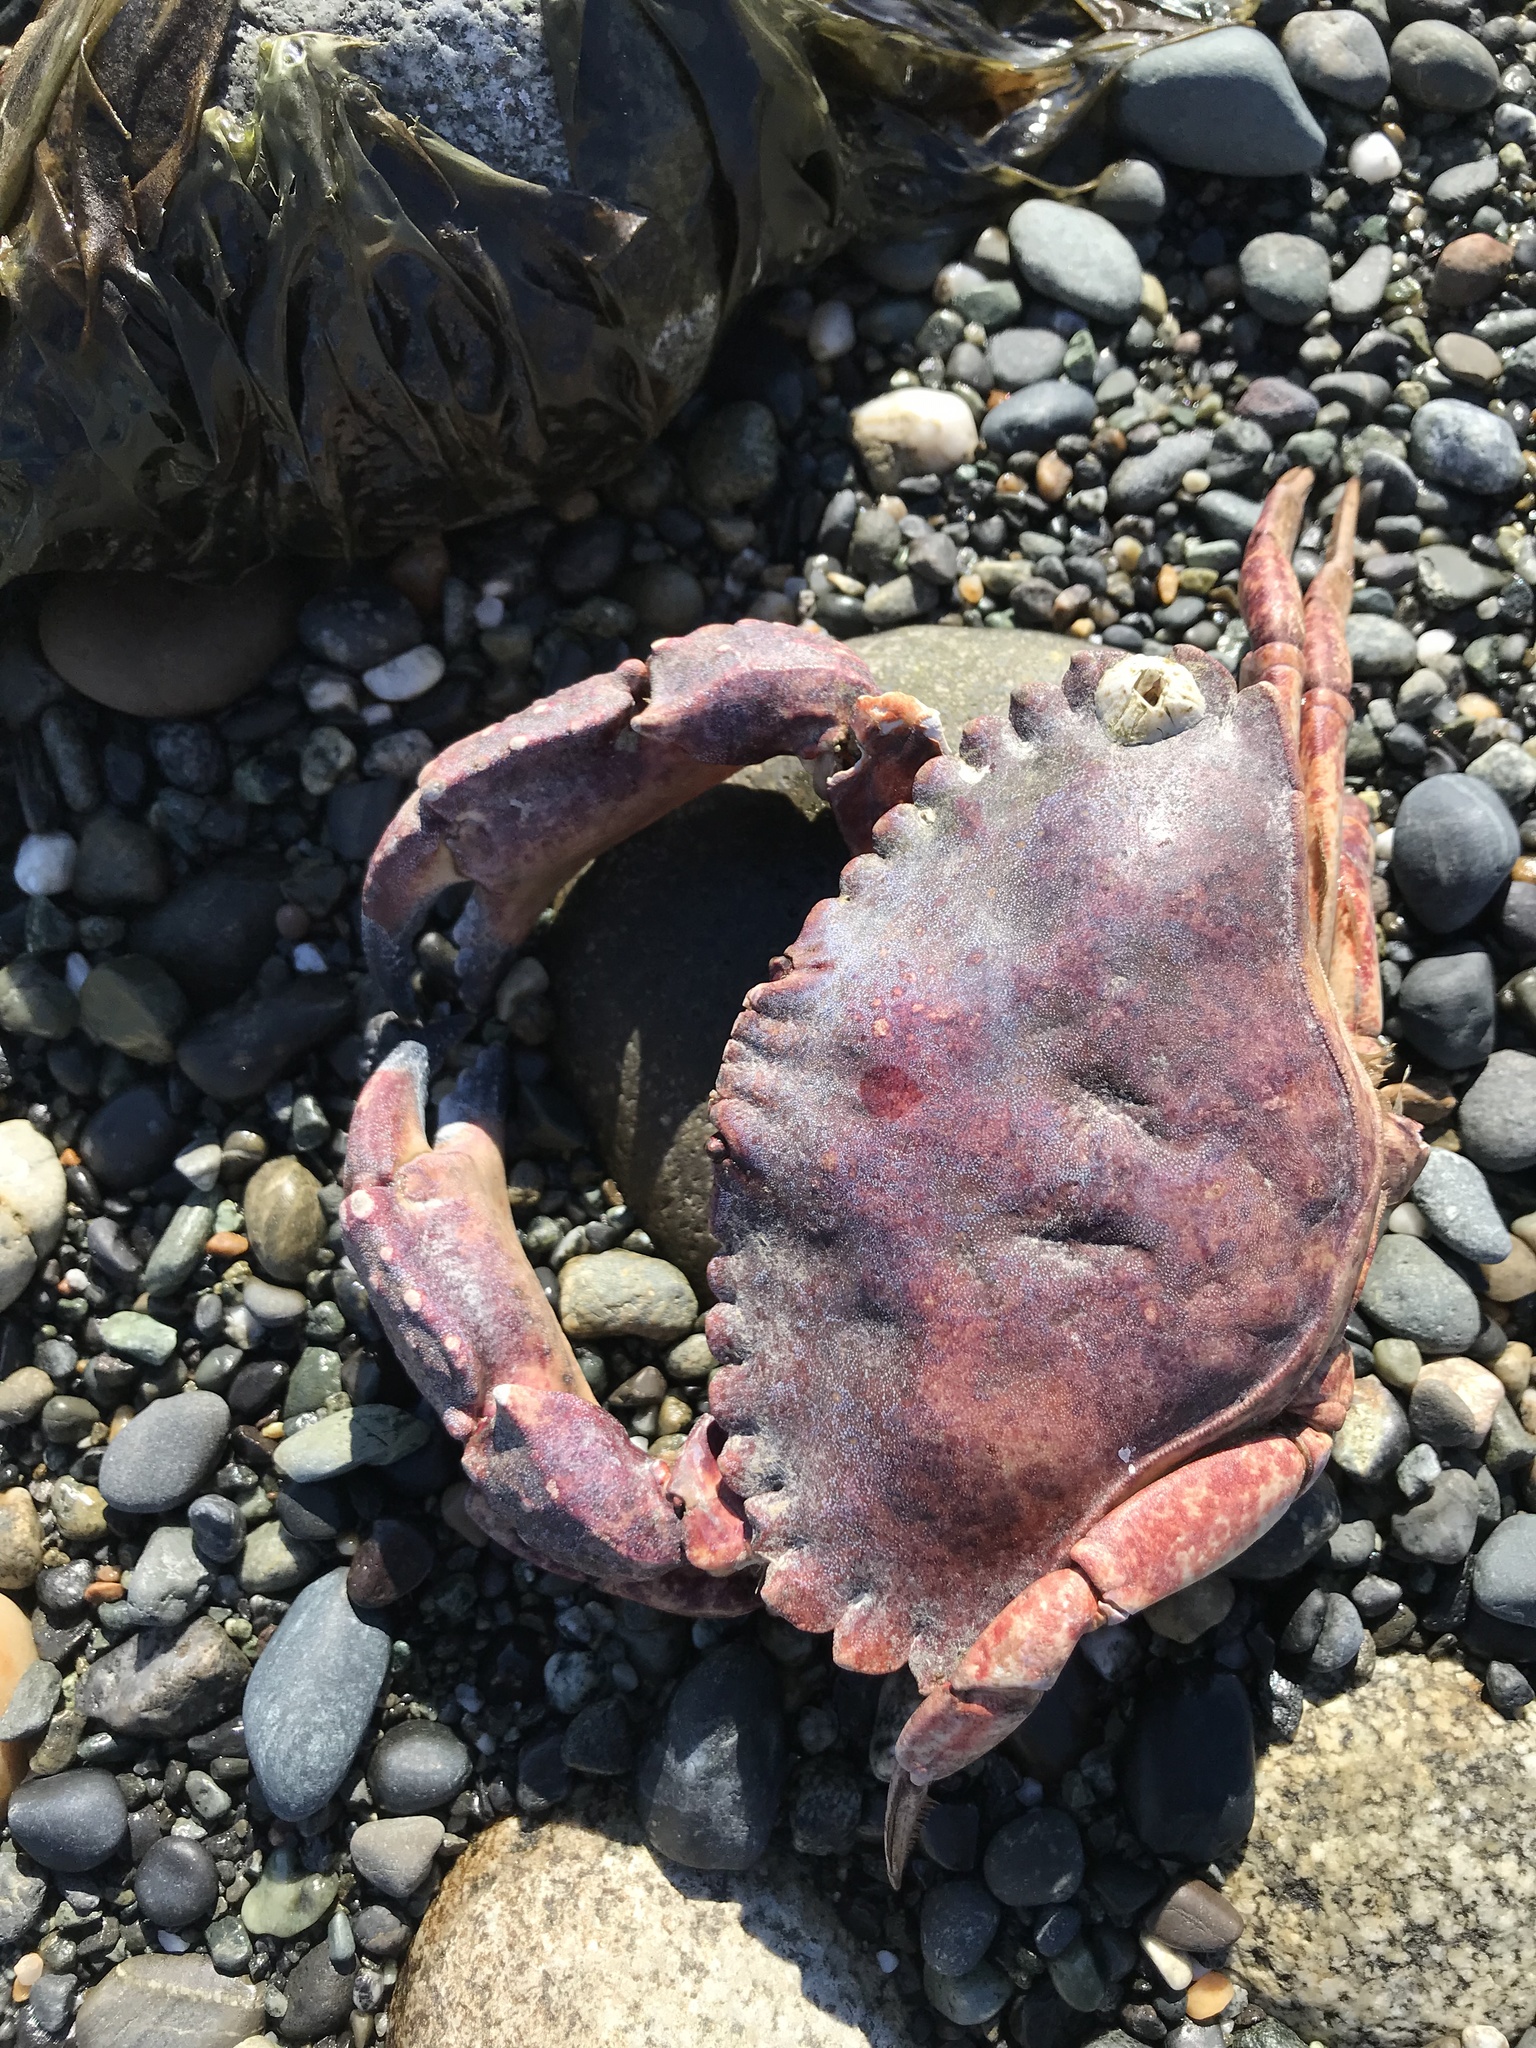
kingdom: Animalia
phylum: Arthropoda
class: Malacostraca
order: Decapoda
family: Cancridae
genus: Cancer
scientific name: Cancer productus
